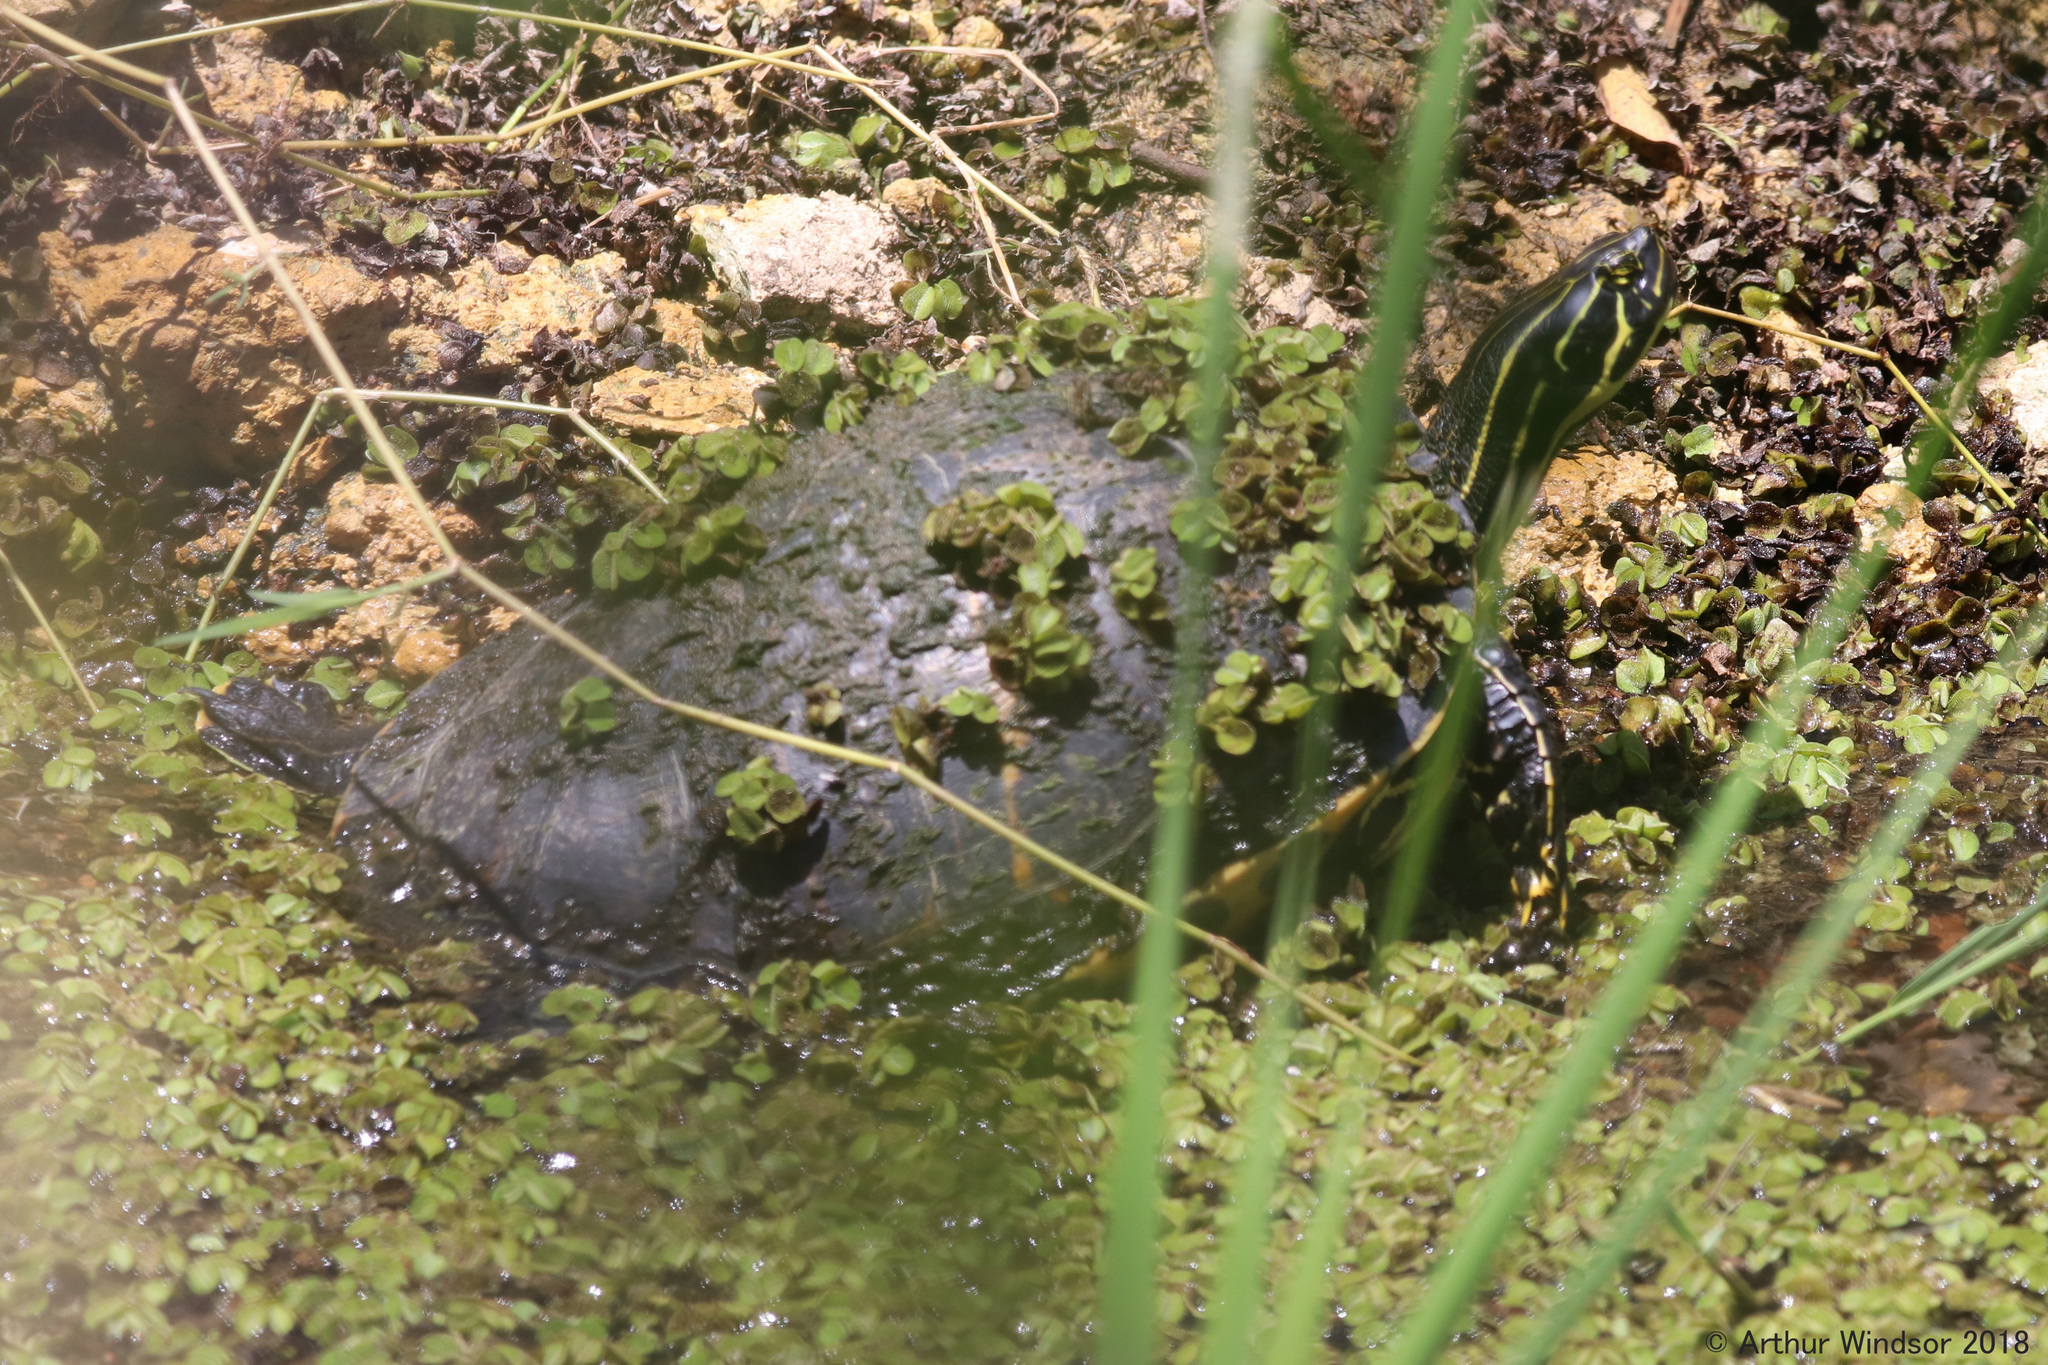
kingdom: Animalia
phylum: Chordata
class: Testudines
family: Emydidae
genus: Pseudemys
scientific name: Pseudemys peninsularis
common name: Peninsula cooter
